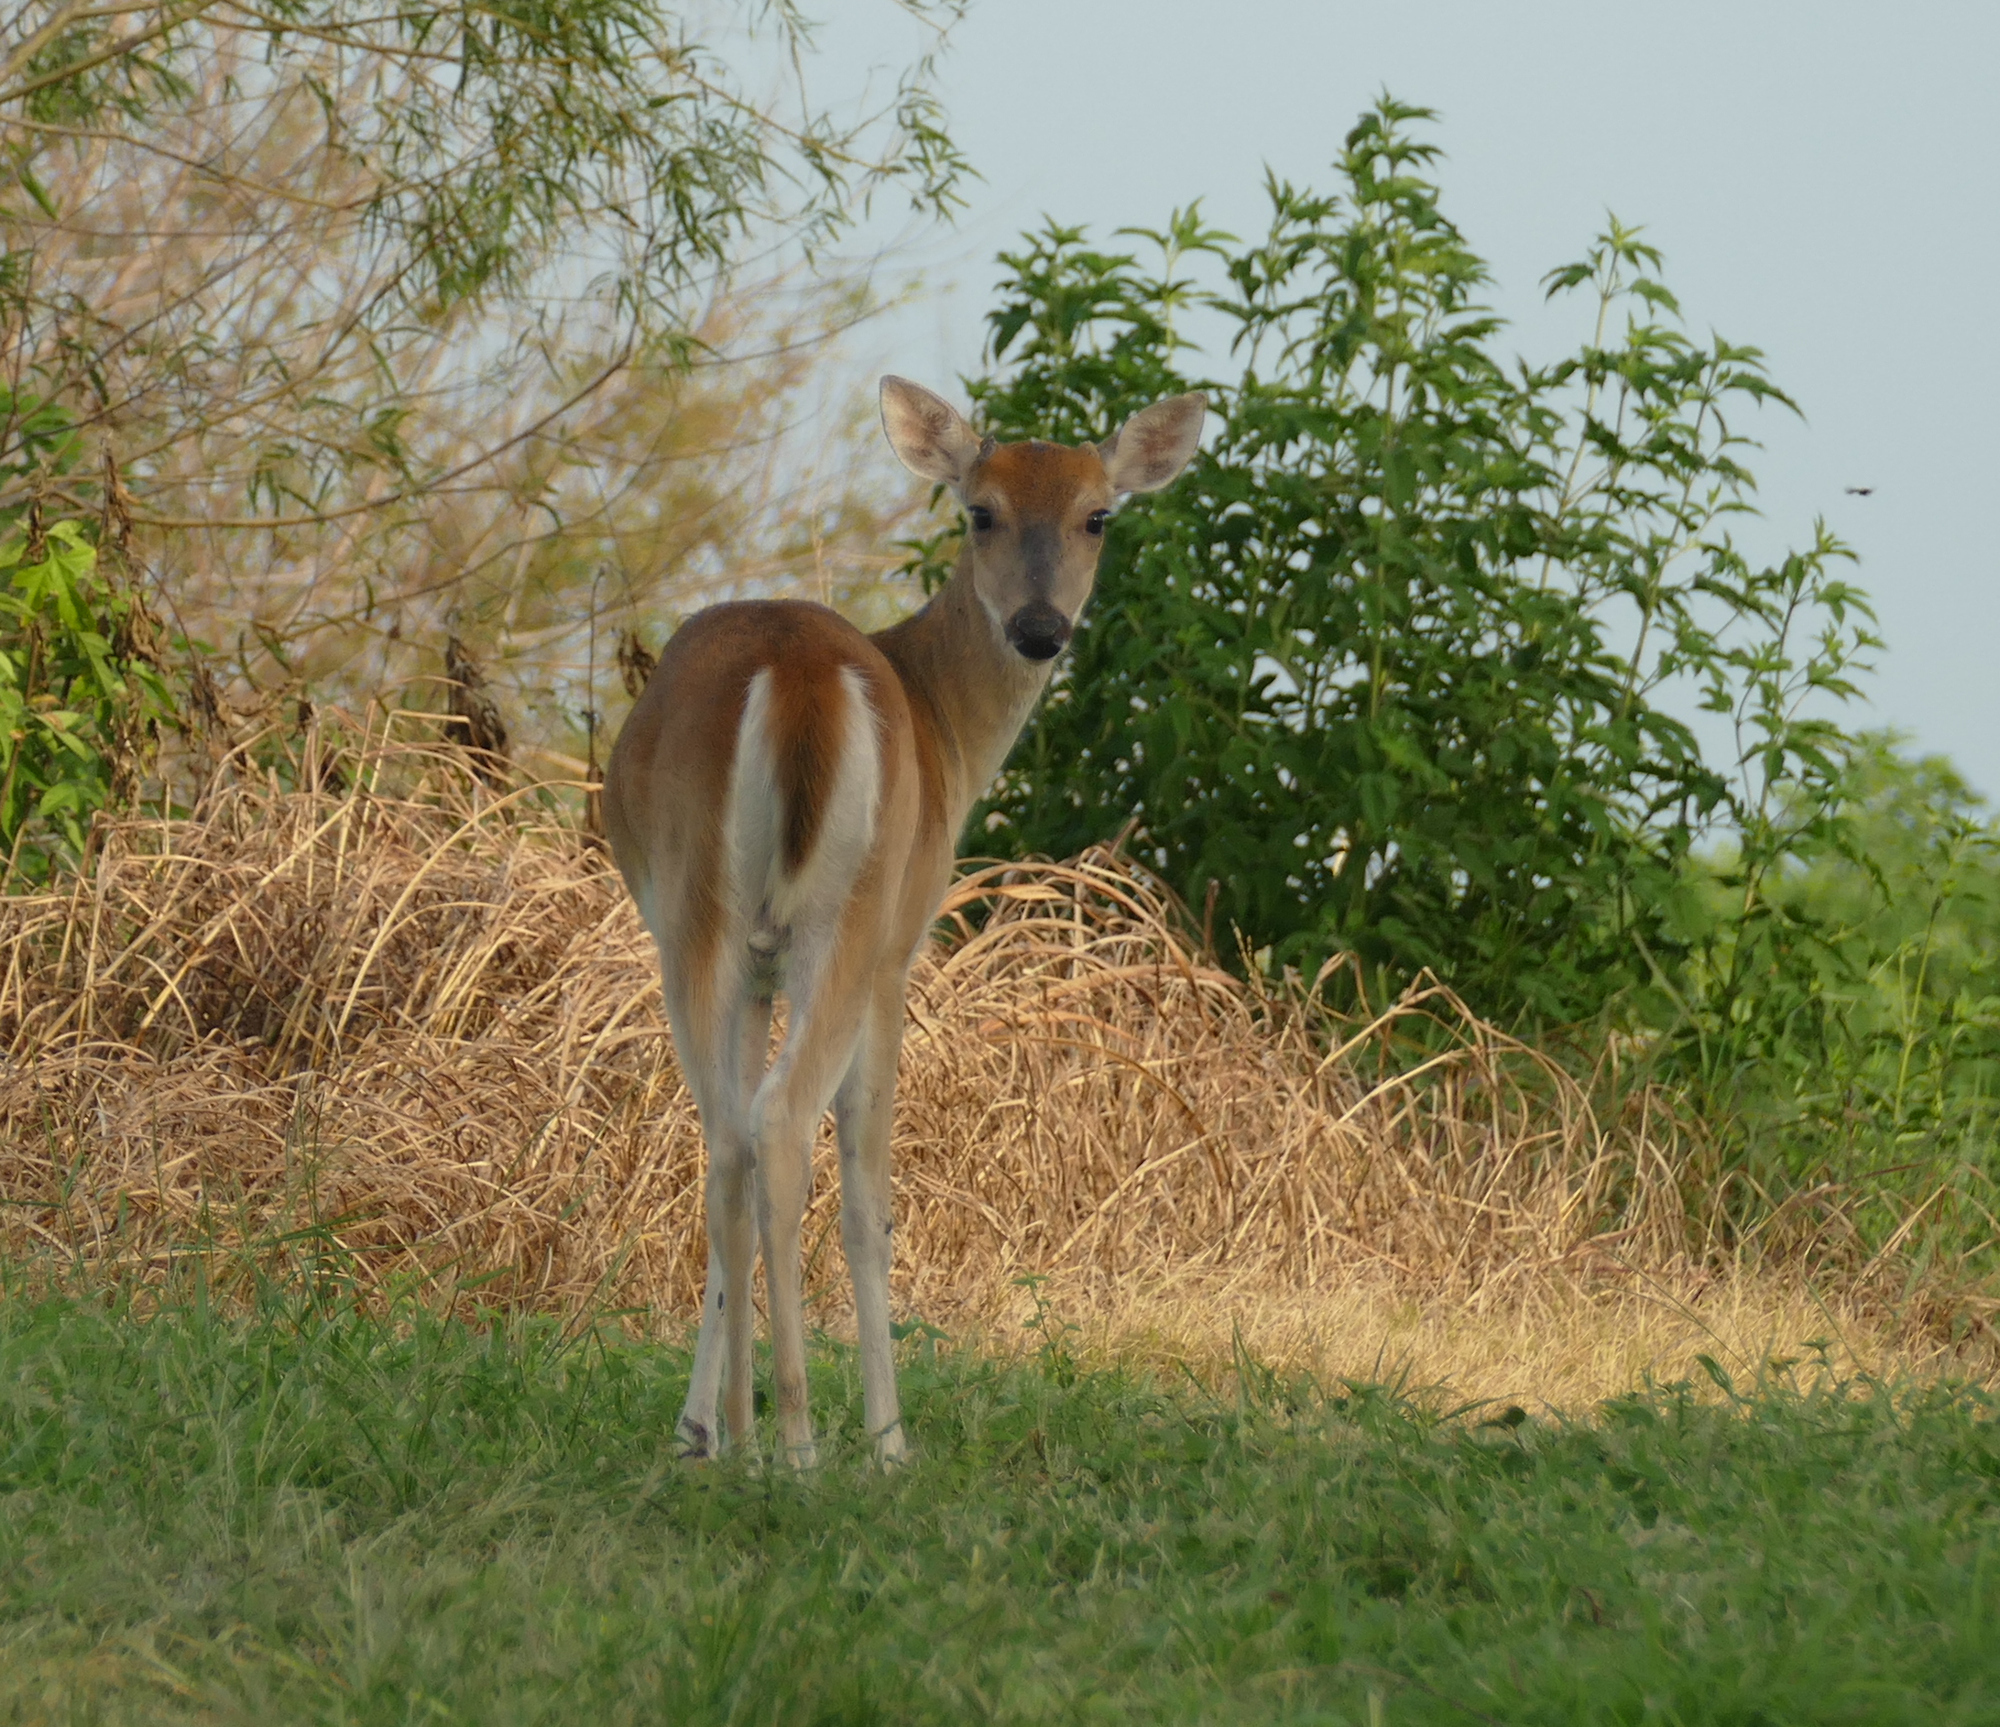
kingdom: Animalia
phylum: Chordata
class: Mammalia
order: Artiodactyla
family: Cervidae
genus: Odocoileus
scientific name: Odocoileus virginianus
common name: White-tailed deer
